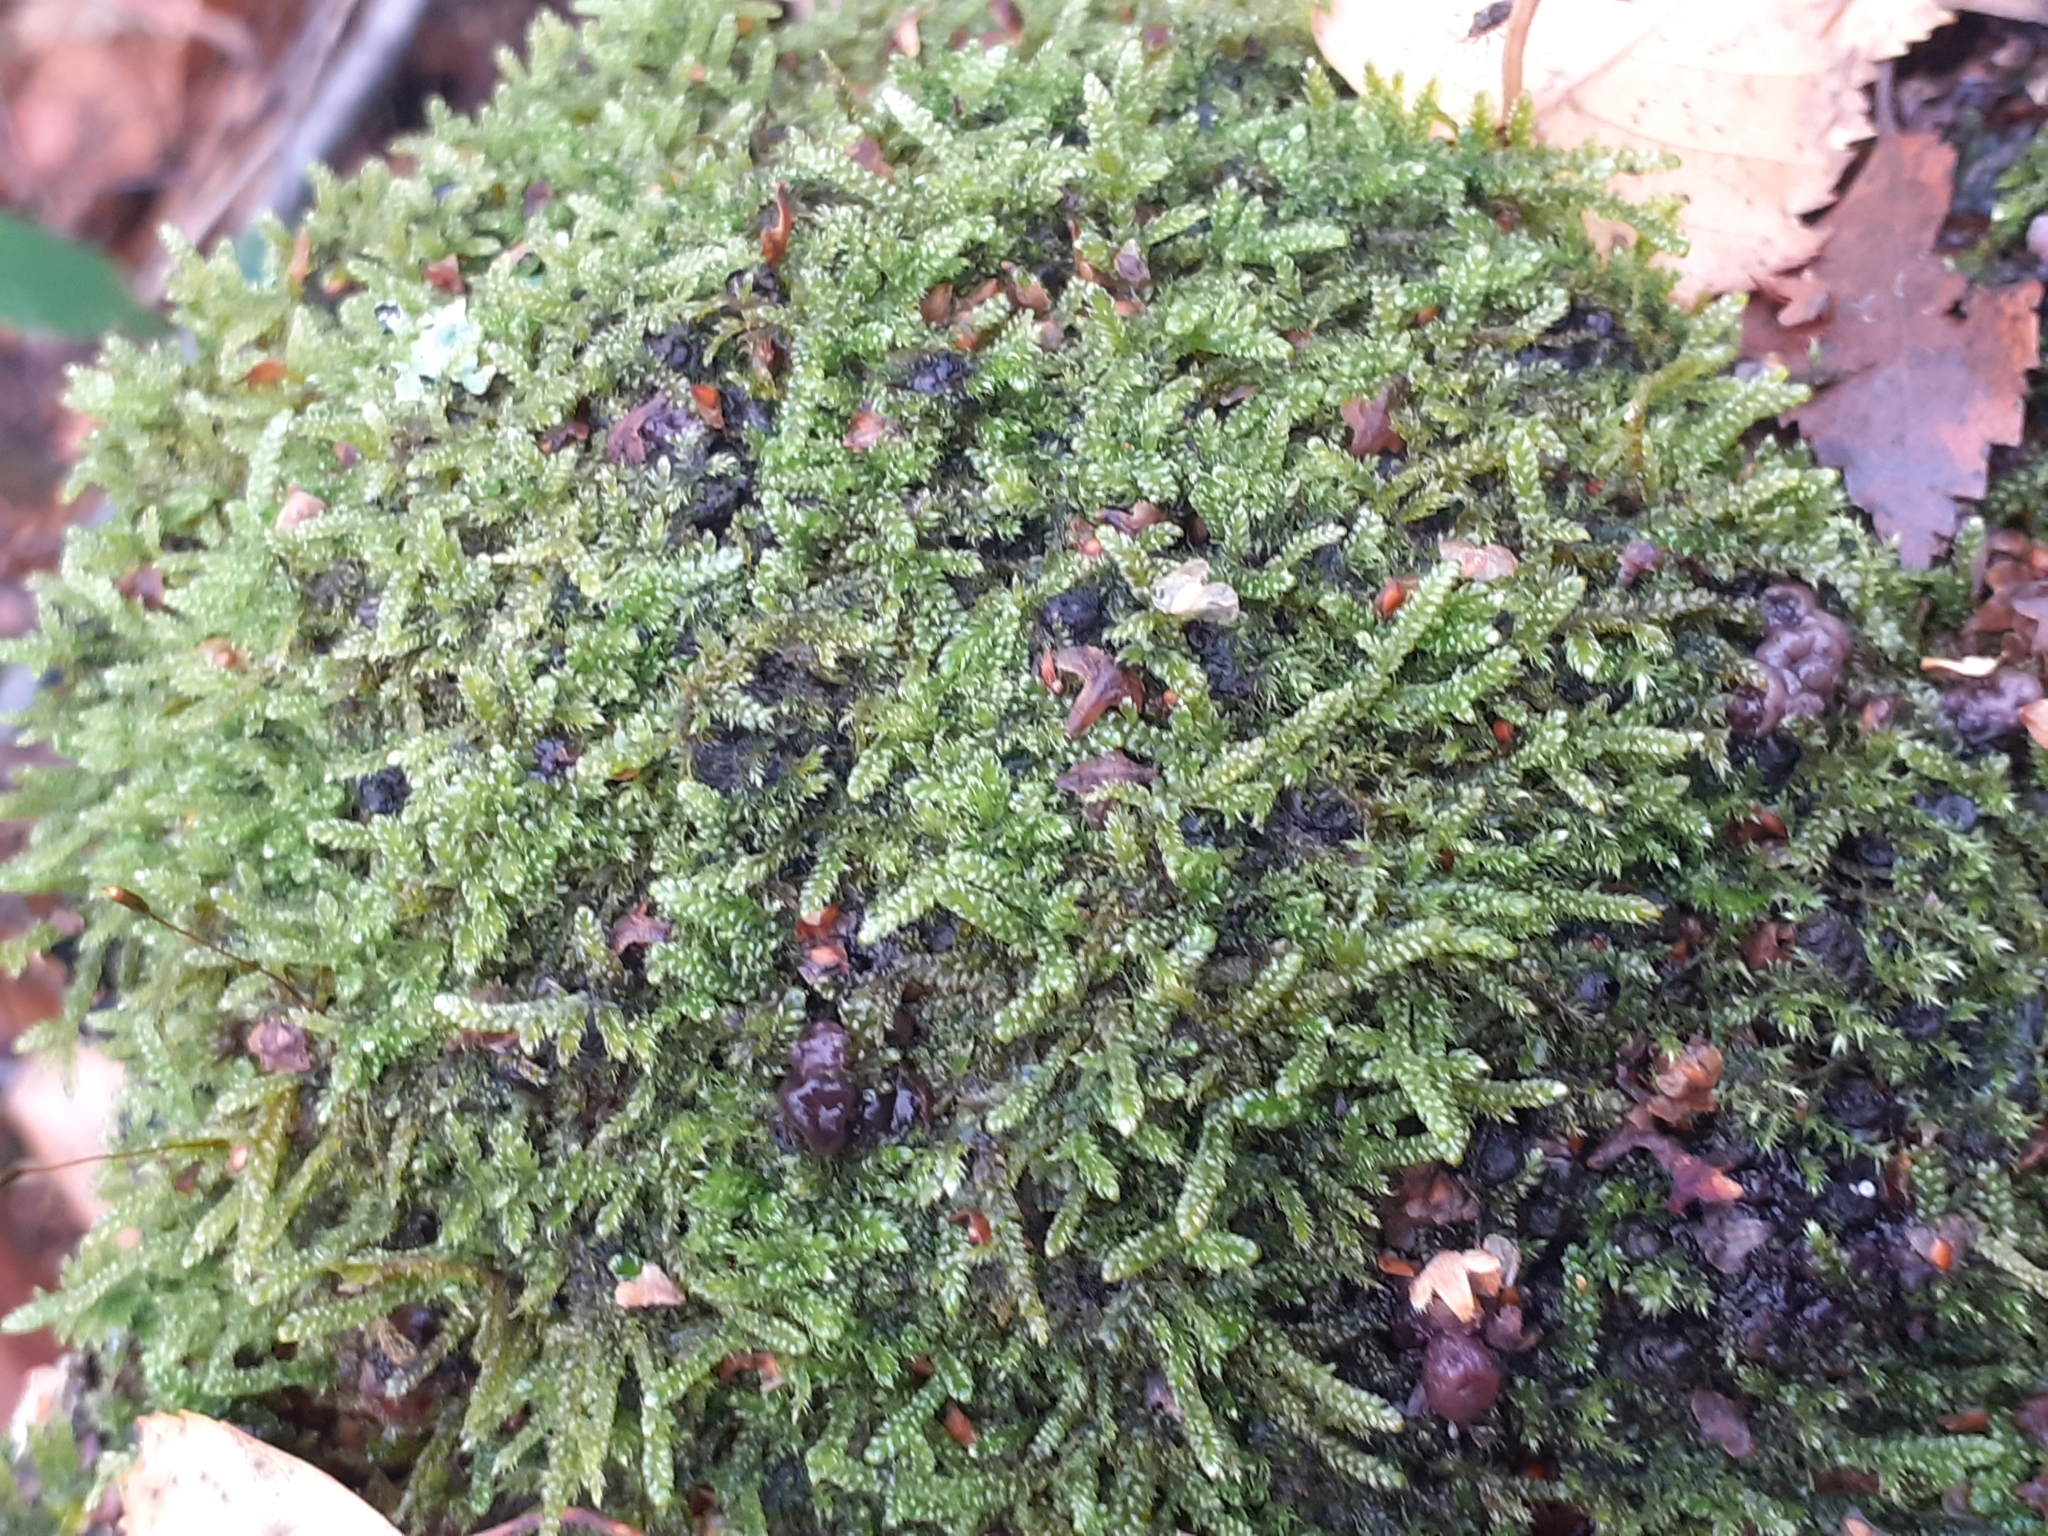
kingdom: Plantae
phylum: Bryophyta
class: Bryopsida
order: Hypnales
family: Hypnaceae
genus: Hypnum
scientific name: Hypnum cupressiforme
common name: Cypress-leaved plait-moss
